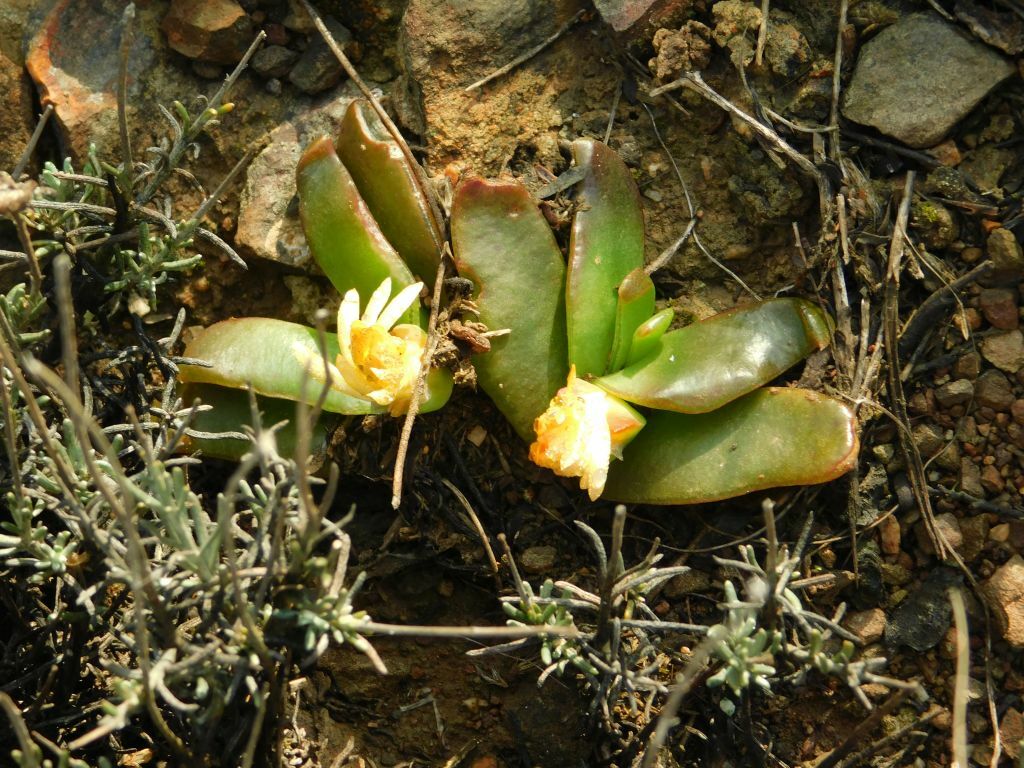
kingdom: Plantae
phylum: Tracheophyta
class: Magnoliopsida
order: Caryophyllales
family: Aizoaceae
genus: Glottiphyllum
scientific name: Glottiphyllum depressum
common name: Fig-marigold
